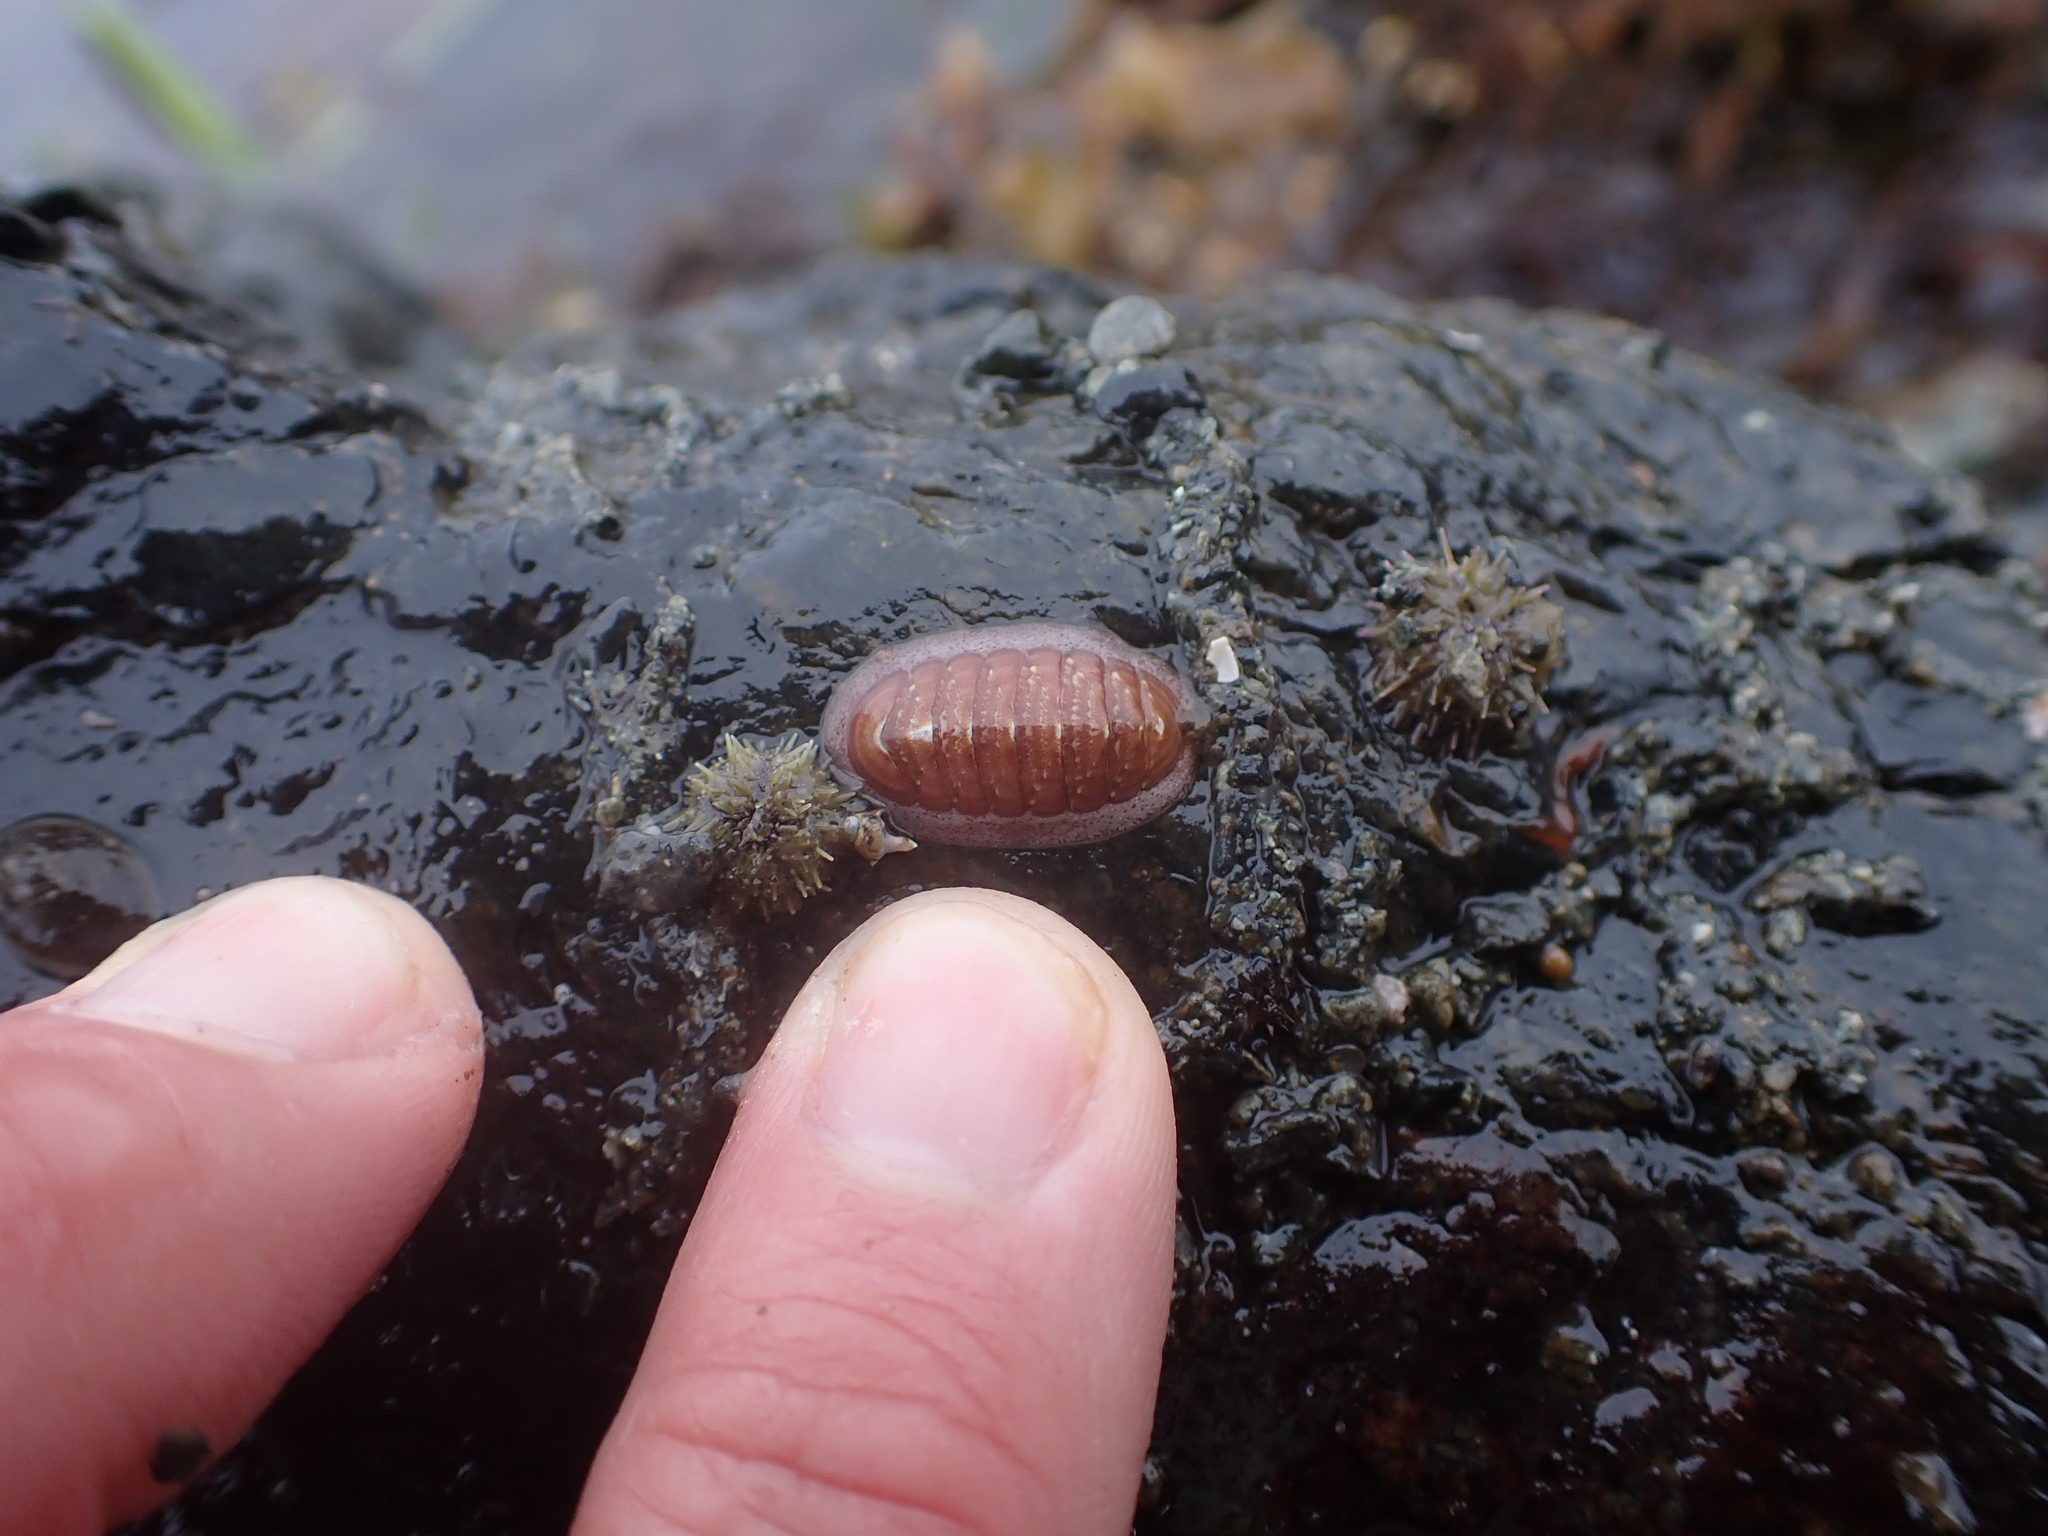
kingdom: Animalia
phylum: Mollusca
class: Polyplacophora
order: Chitonida
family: Ischnochitonidae
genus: Lepidozona
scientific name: Lepidozona interstincta
